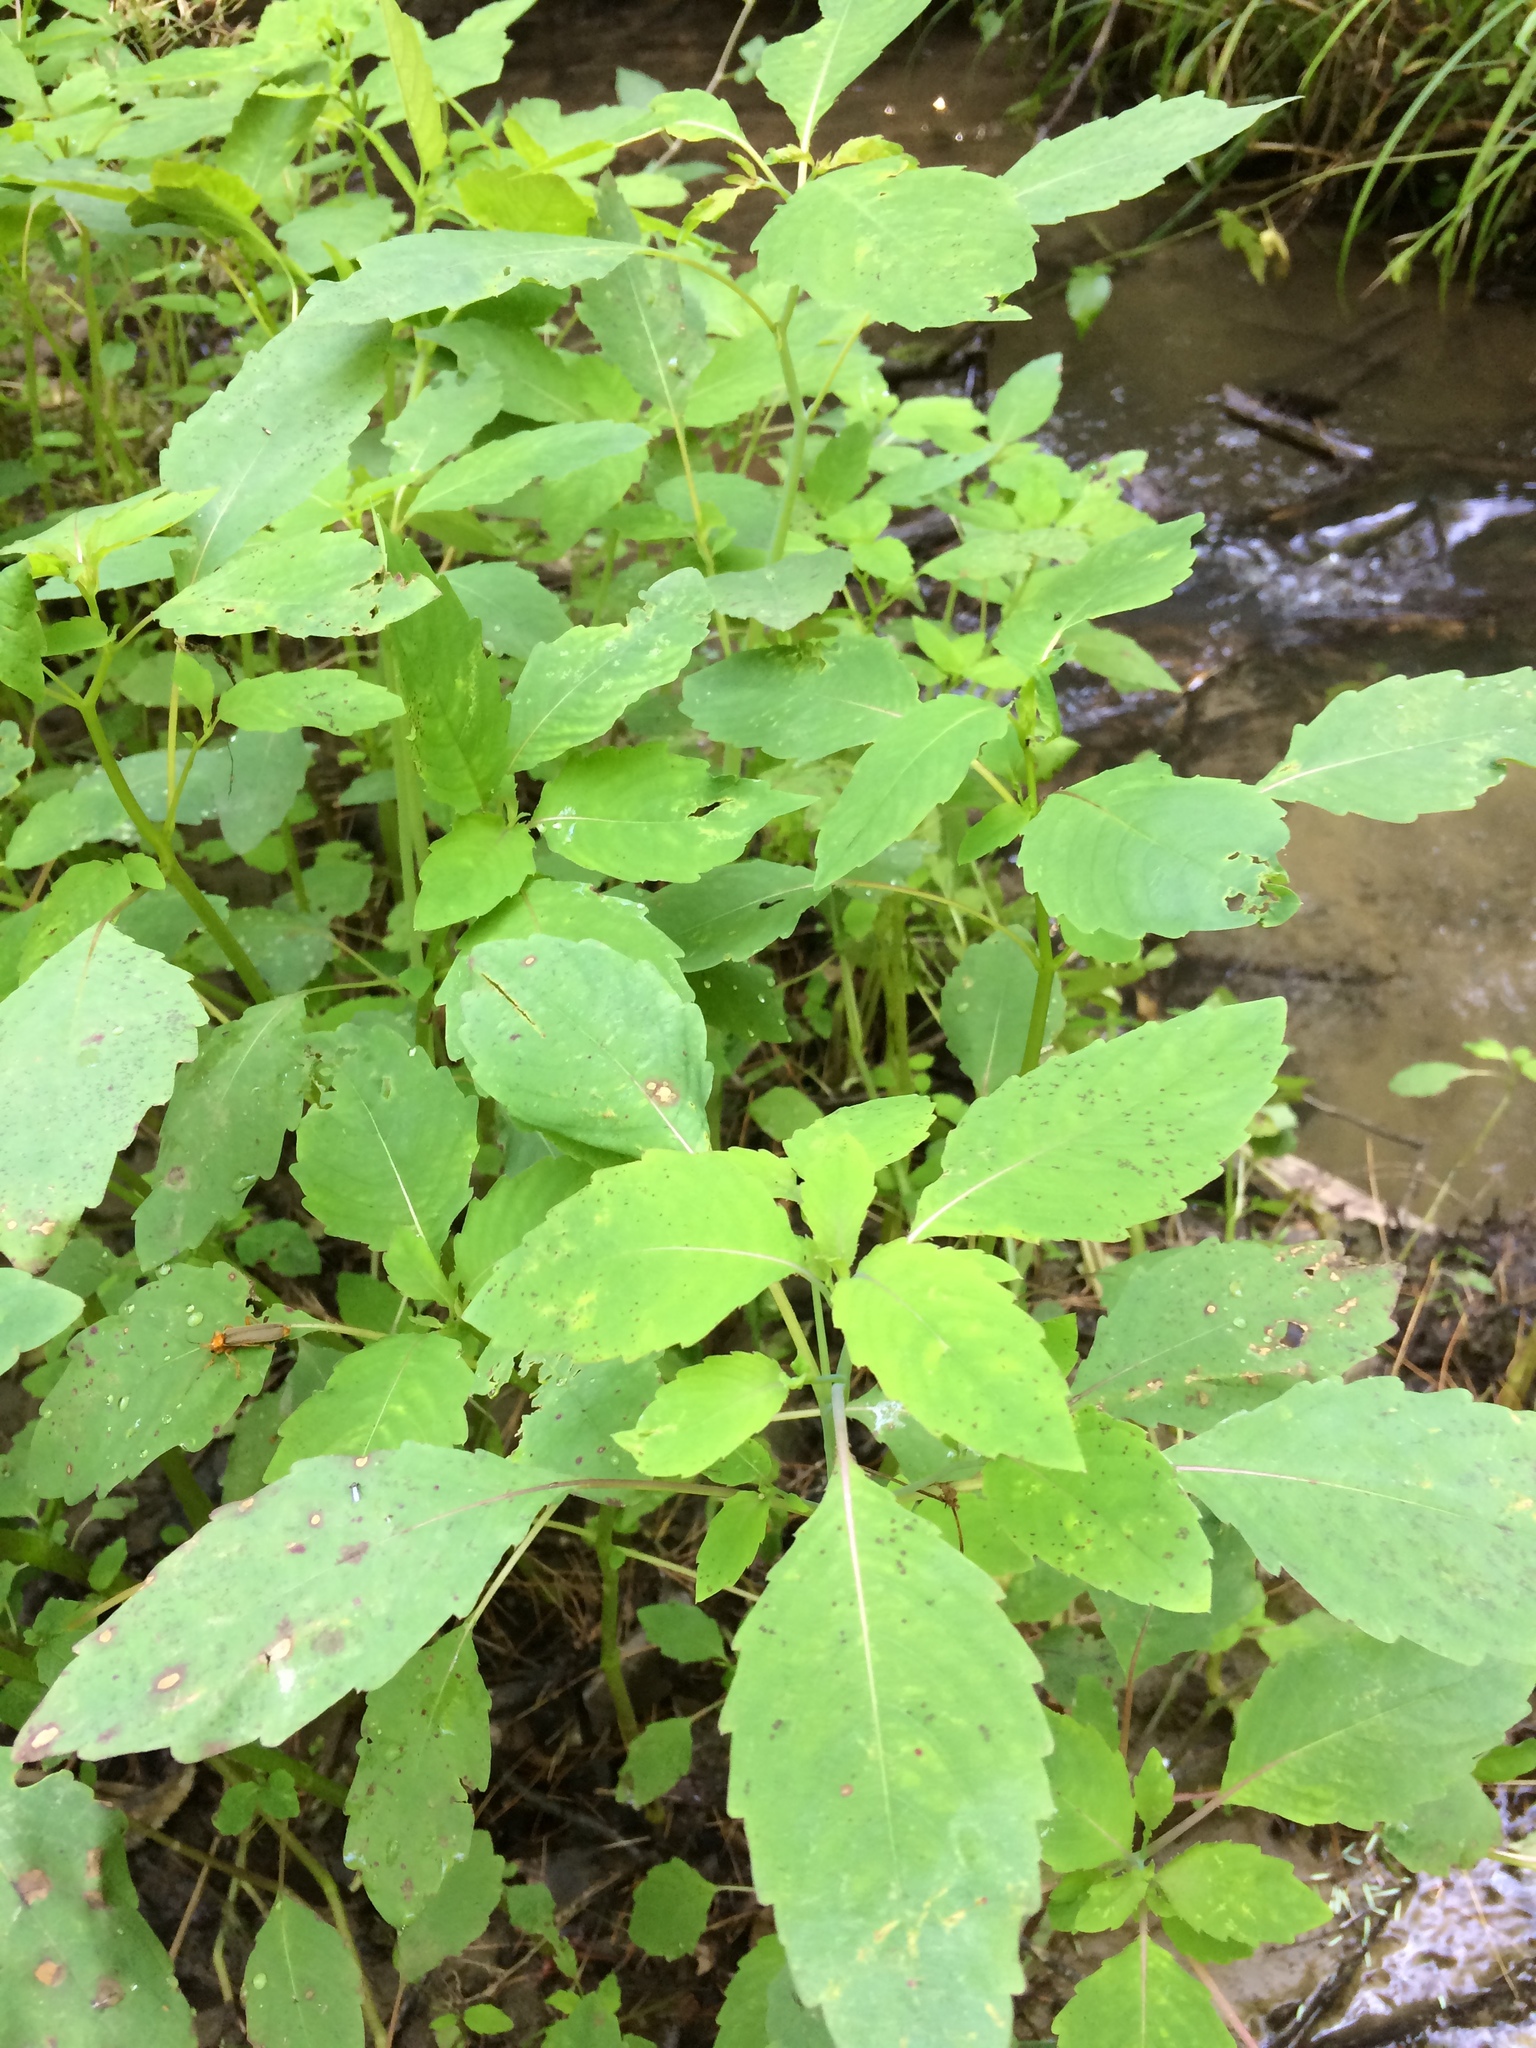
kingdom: Plantae
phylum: Tracheophyta
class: Magnoliopsida
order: Ericales
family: Balsaminaceae
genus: Impatiens
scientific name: Impatiens capensis
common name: Orange balsam
